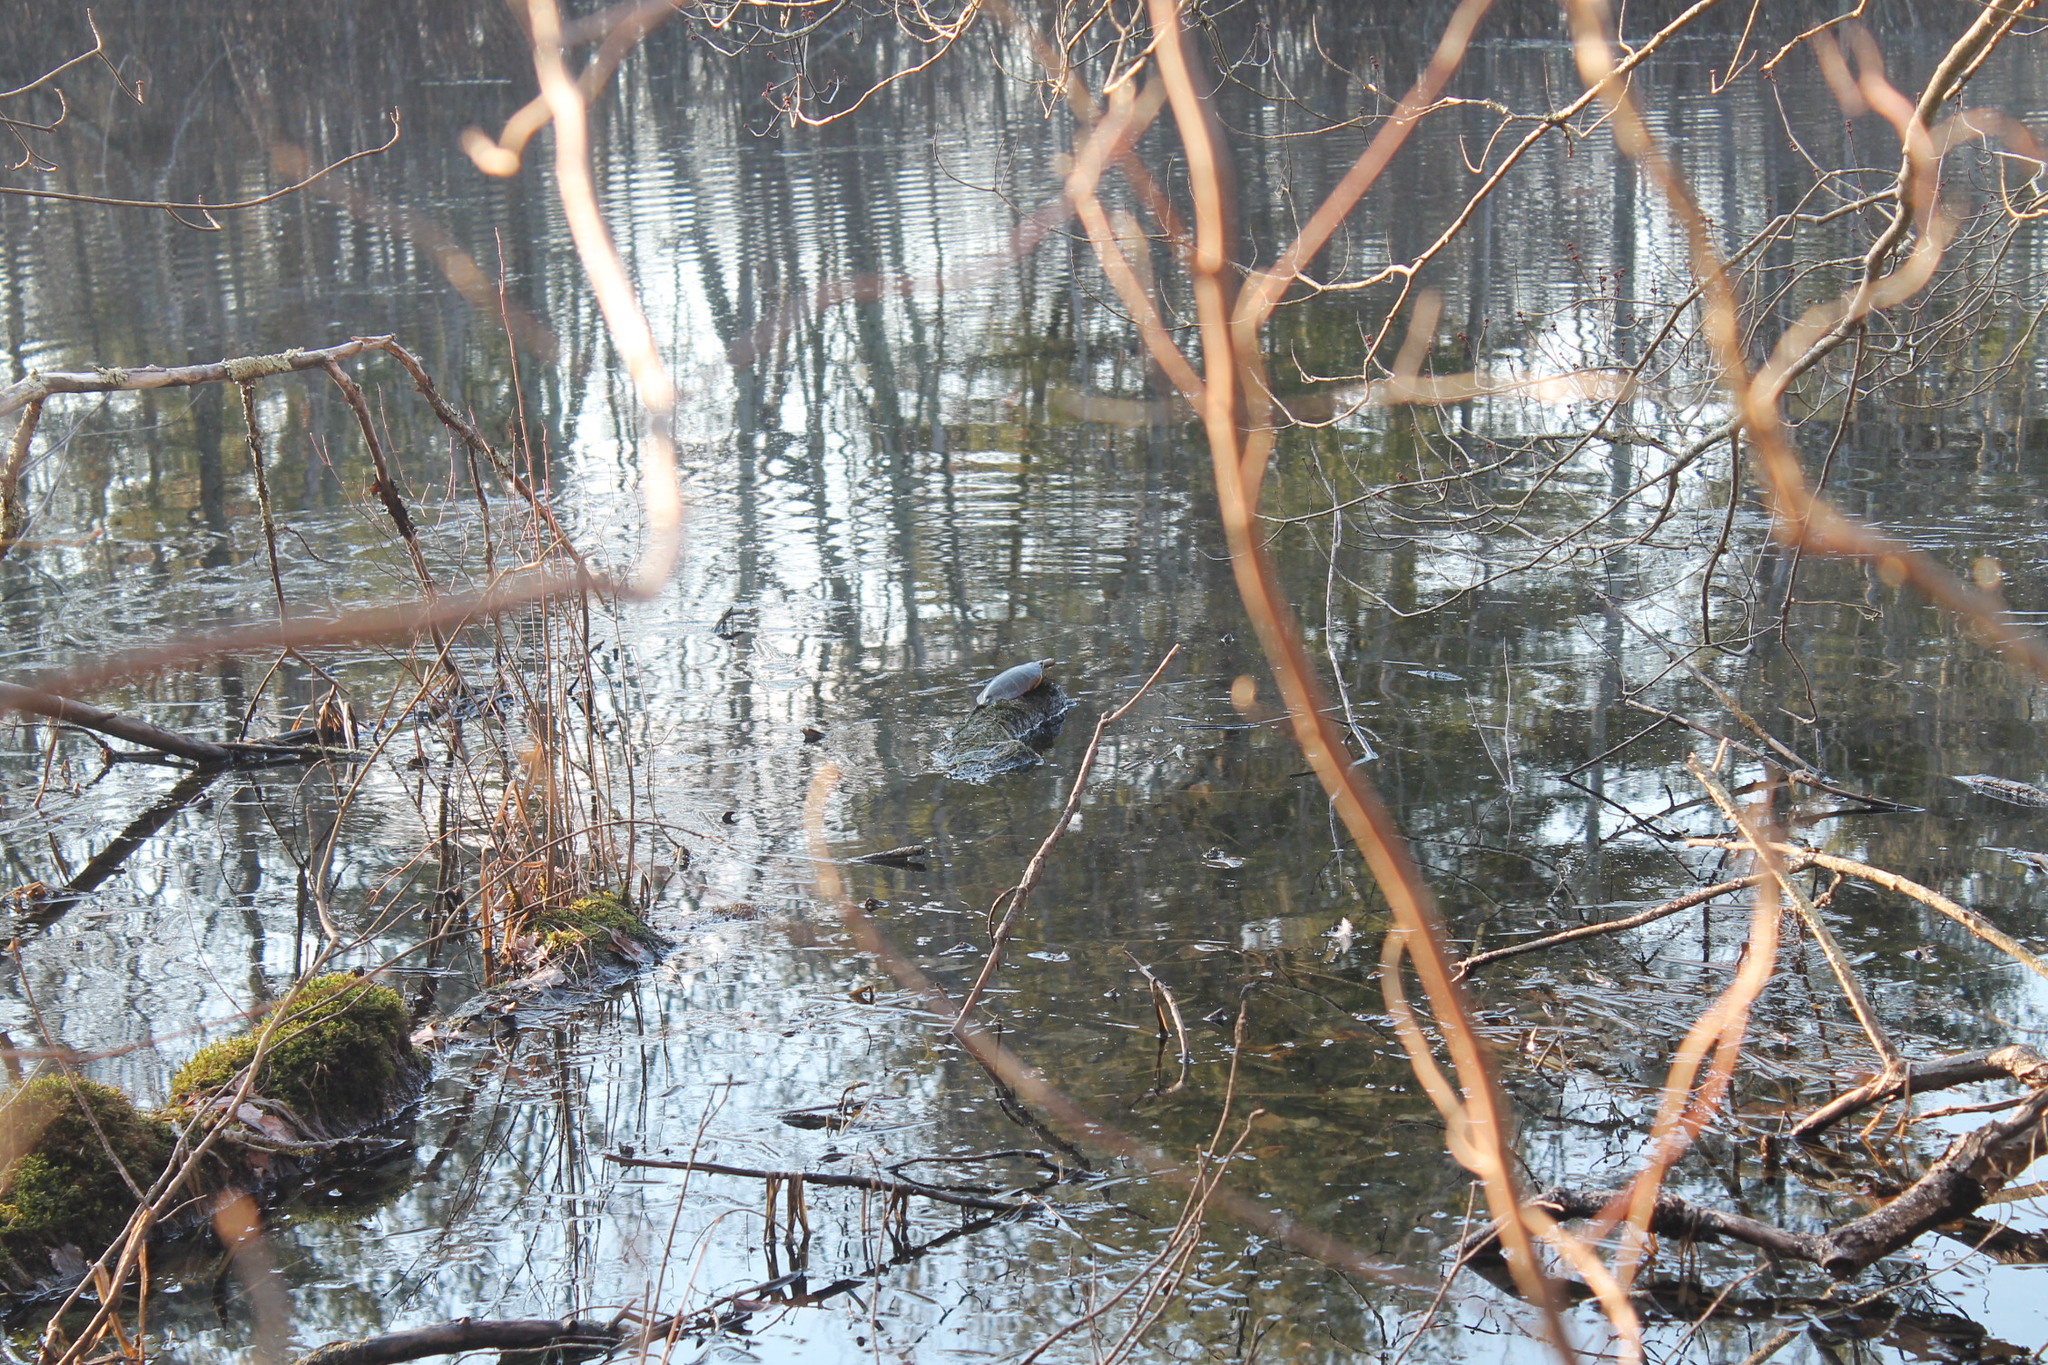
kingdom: Animalia
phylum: Chordata
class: Testudines
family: Emydidae
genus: Chrysemys
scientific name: Chrysemys picta
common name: Painted turtle
